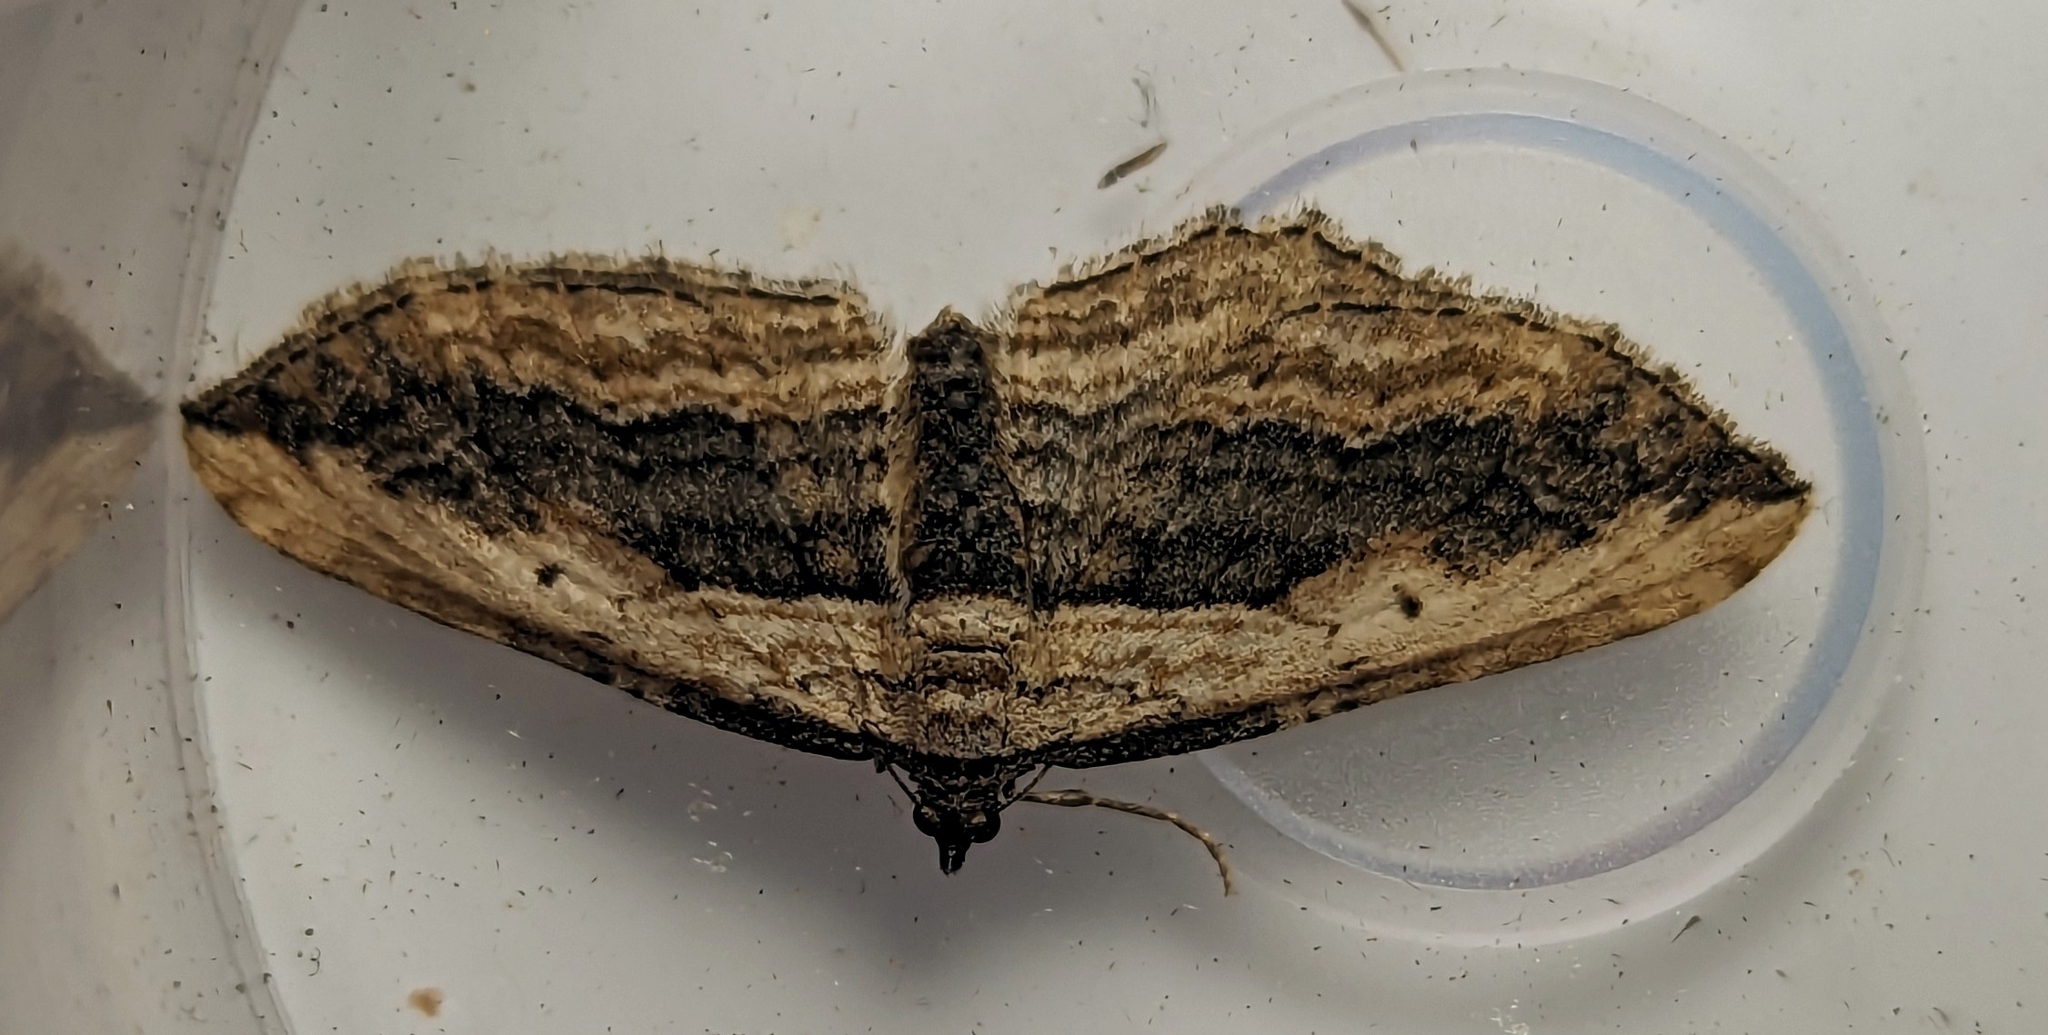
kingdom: Animalia
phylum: Arthropoda
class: Insecta
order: Lepidoptera
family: Geometridae
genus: Horisme
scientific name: Horisme vitalbata
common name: Small waved umber
